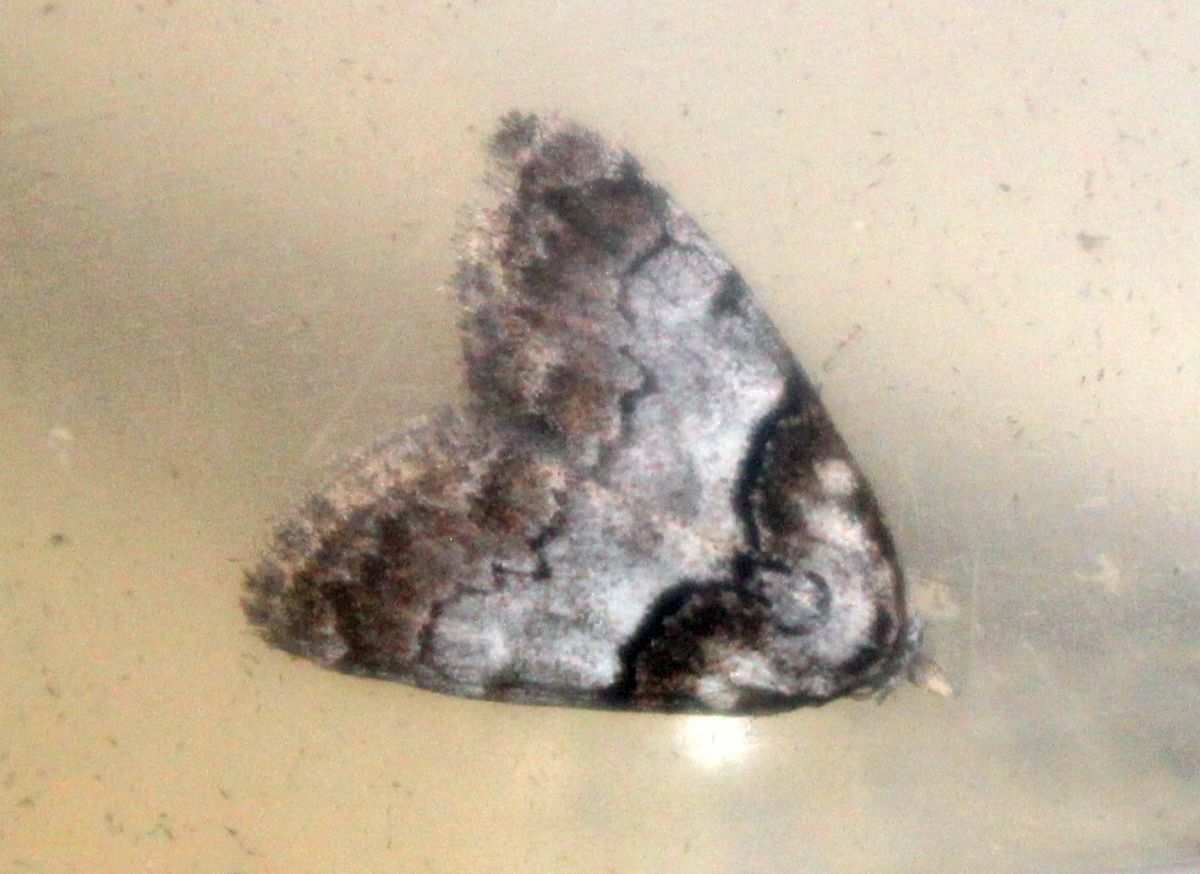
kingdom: Animalia
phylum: Arthropoda
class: Insecta
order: Lepidoptera
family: Nolidae
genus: Nola
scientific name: Nola cucullatella
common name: Short-cloaked moth
